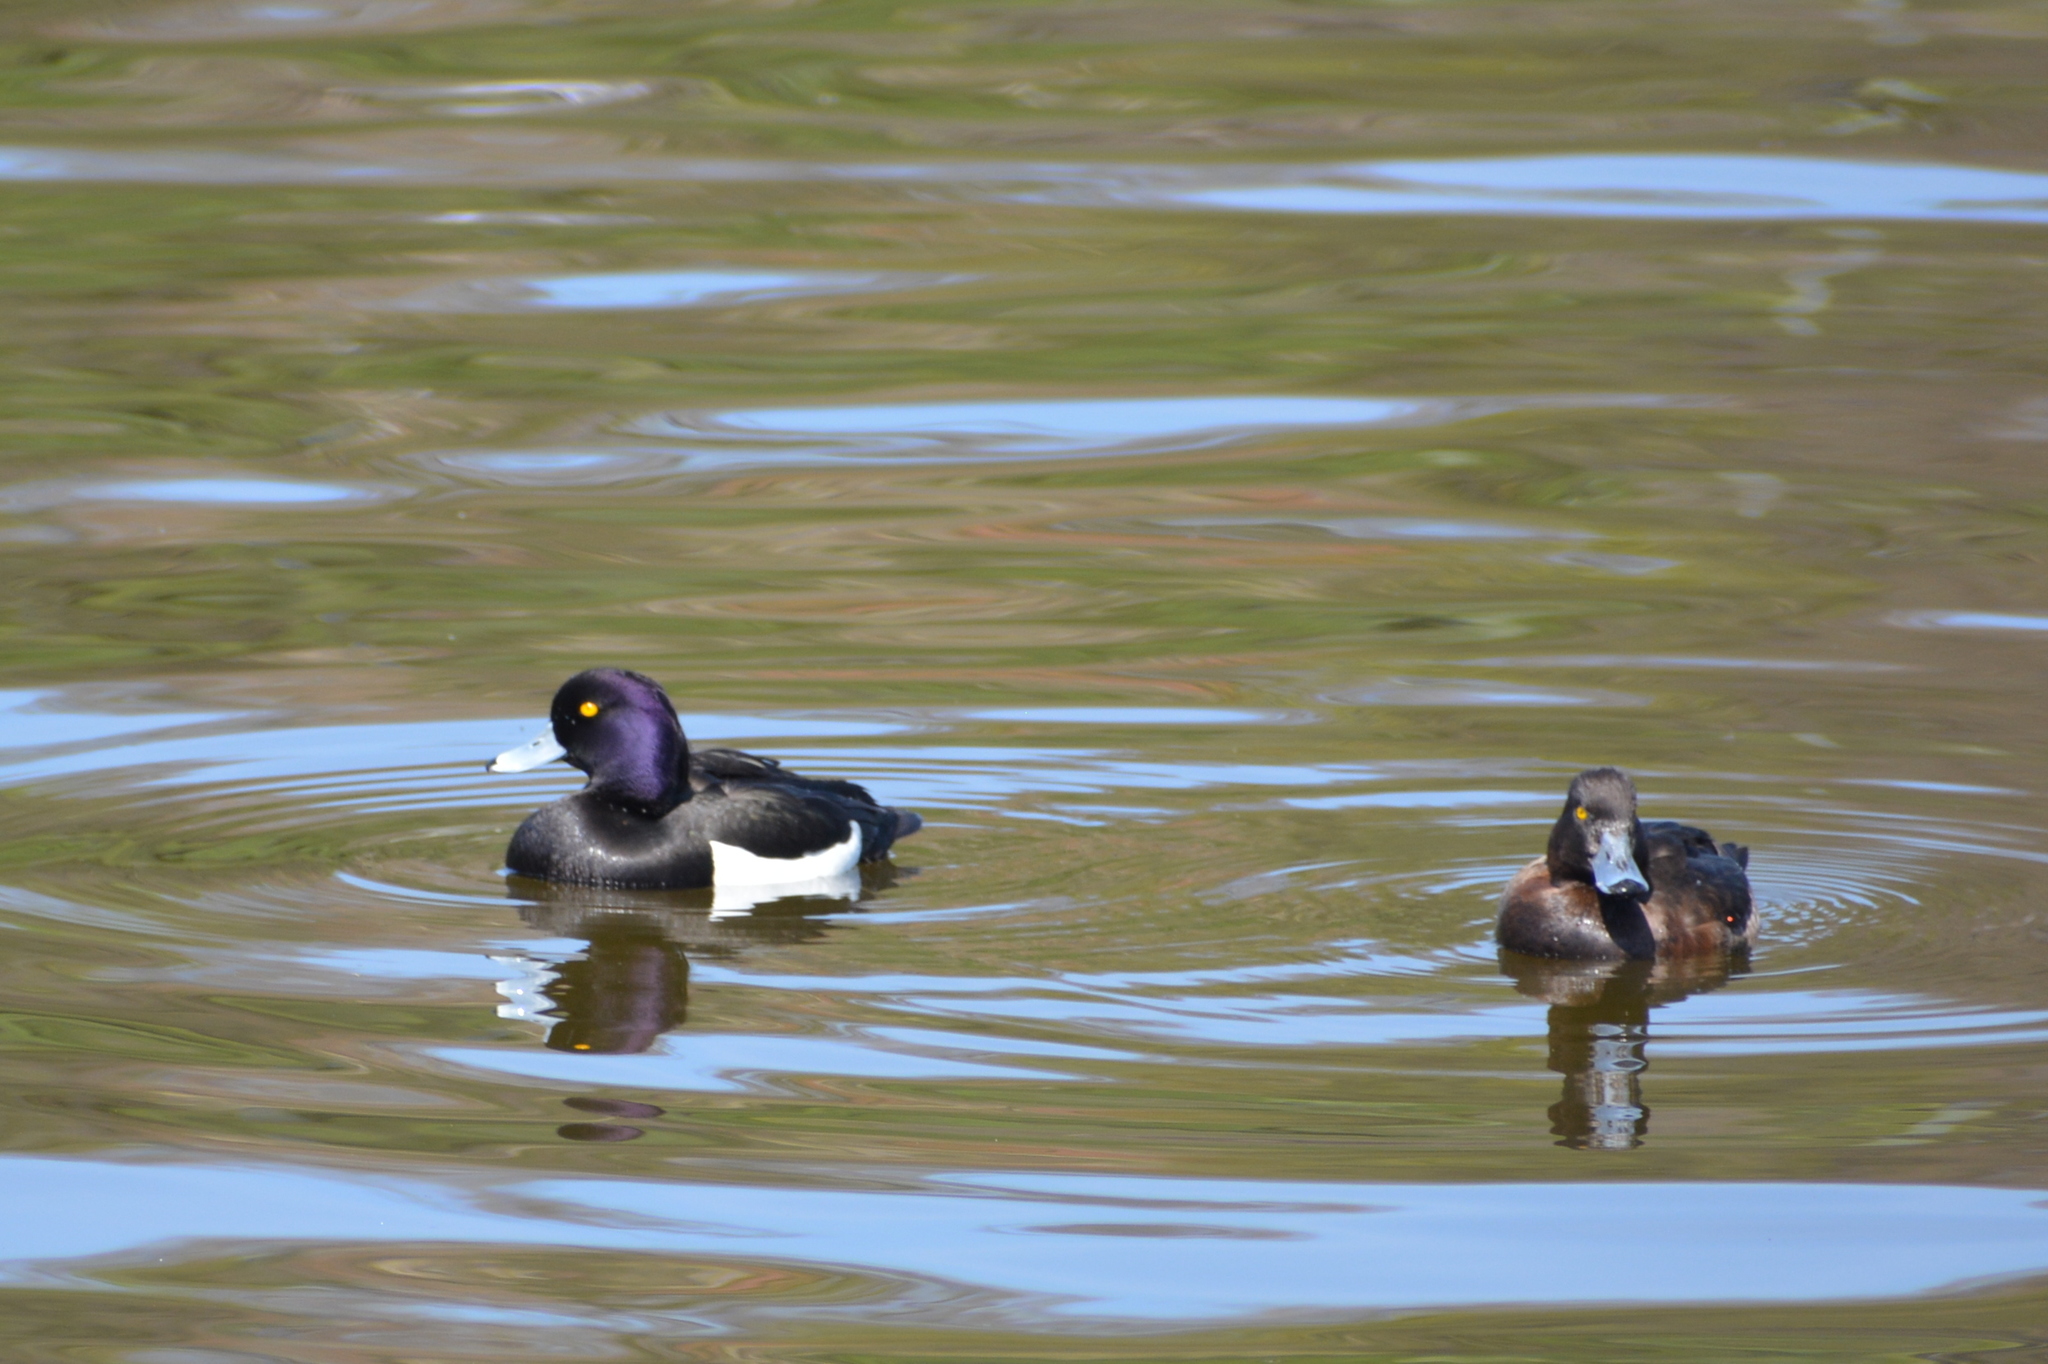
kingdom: Animalia
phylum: Chordata
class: Aves
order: Anseriformes
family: Anatidae
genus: Aythya
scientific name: Aythya fuligula
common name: Tufted duck
